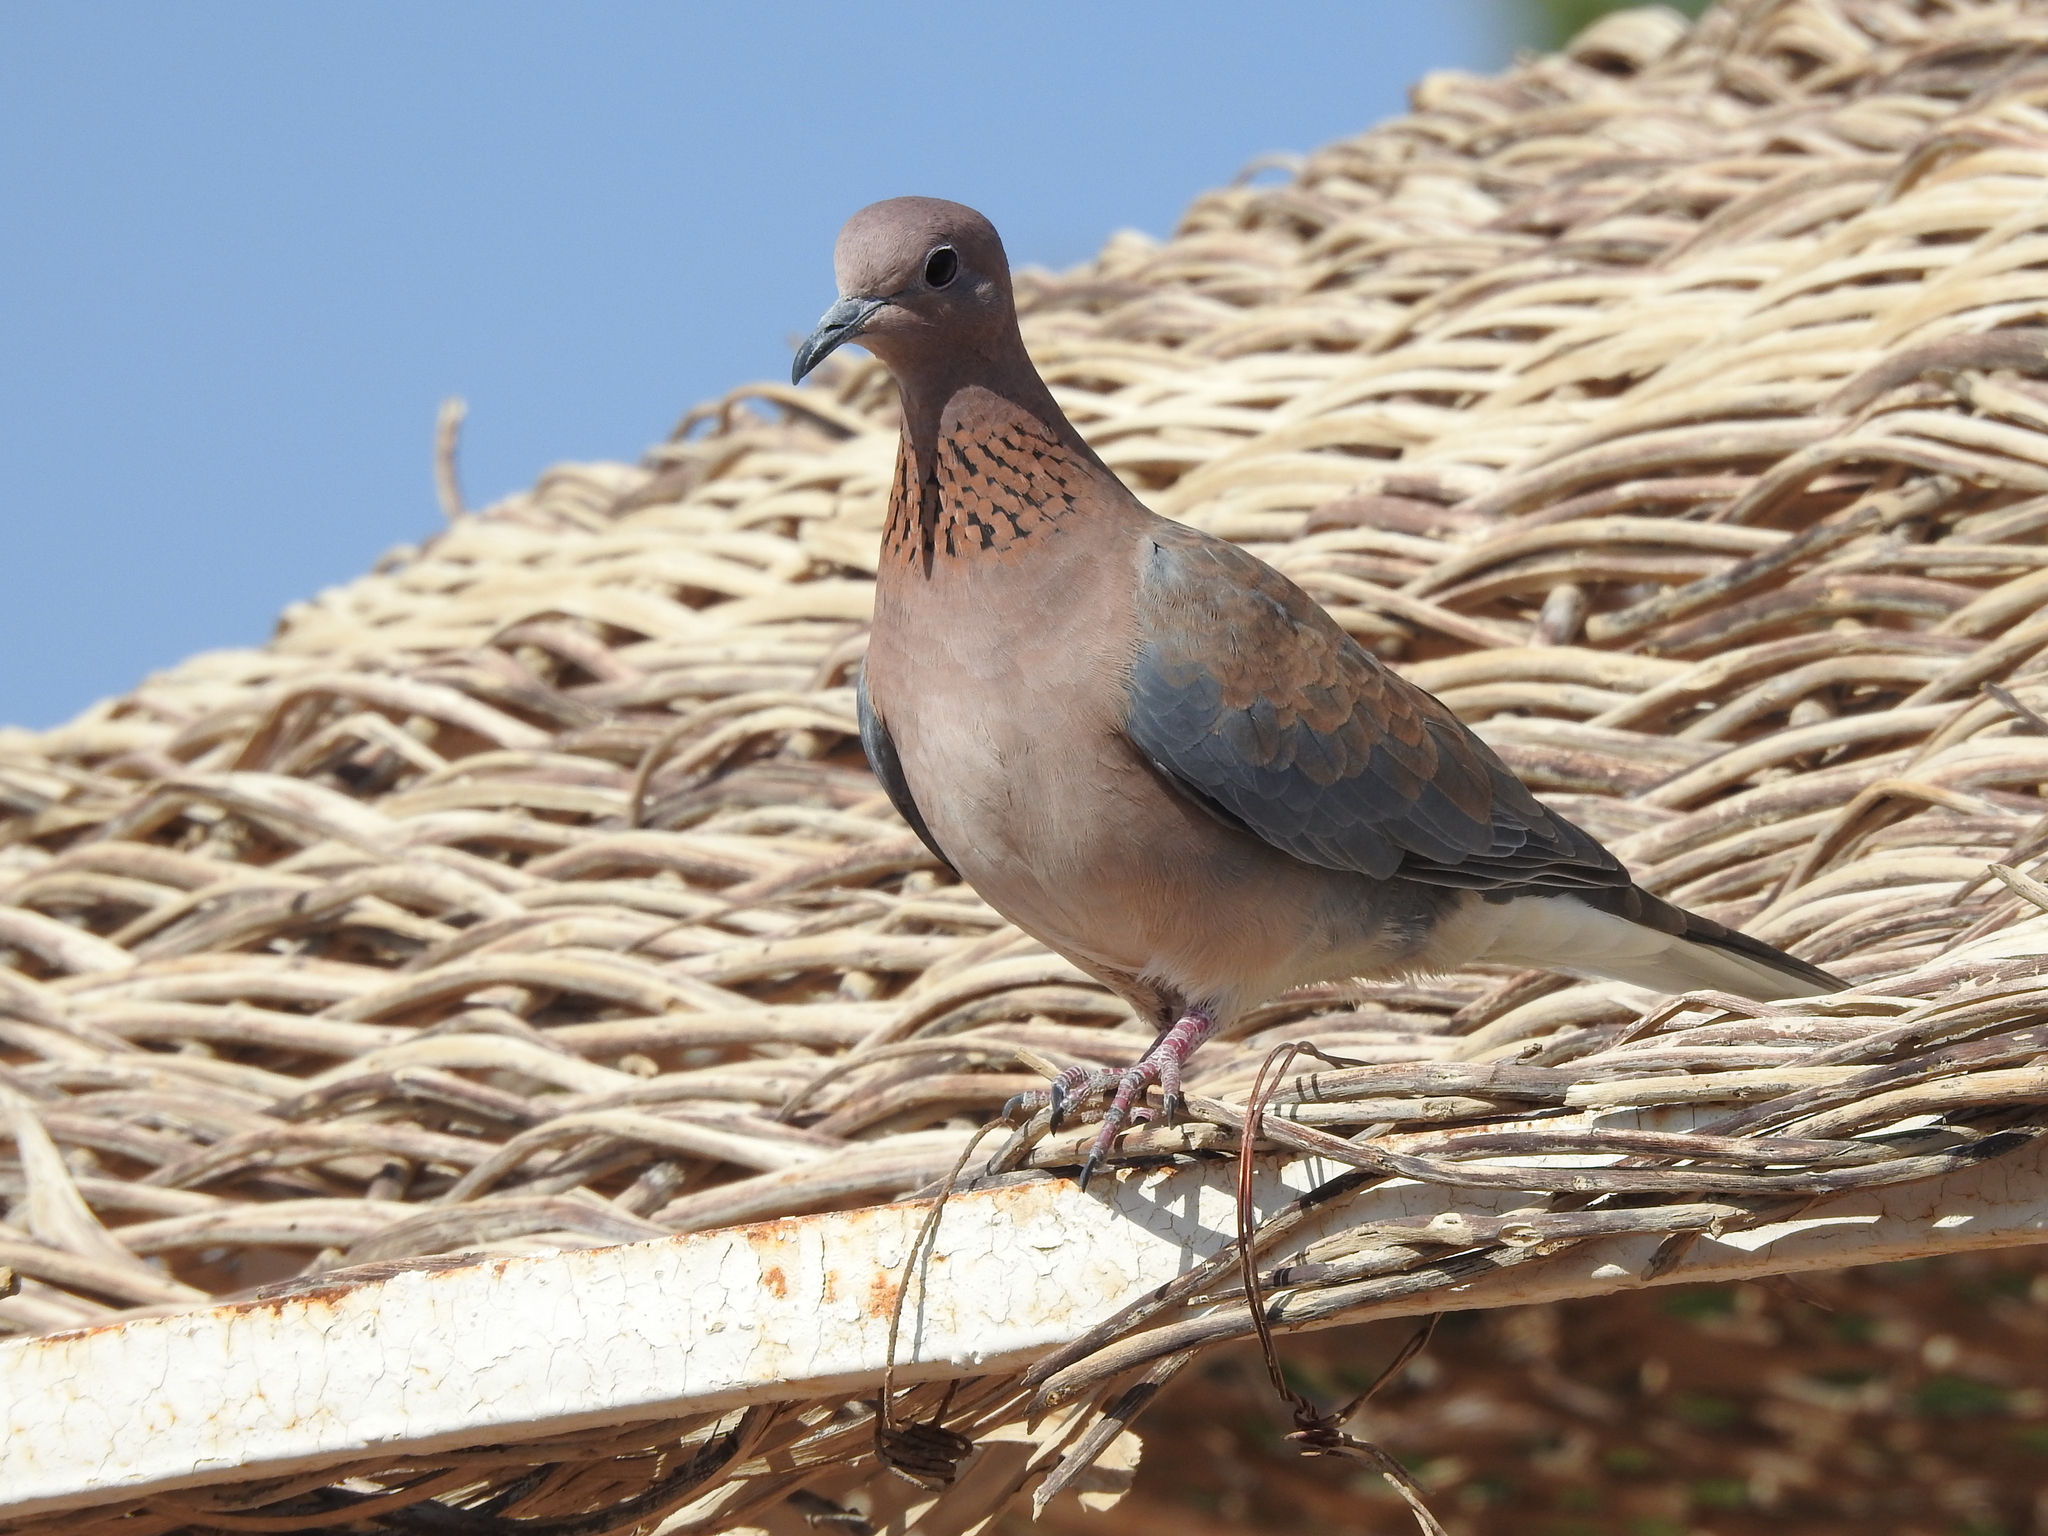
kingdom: Animalia
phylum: Chordata
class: Aves
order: Columbiformes
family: Columbidae
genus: Spilopelia
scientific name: Spilopelia senegalensis
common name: Laughing dove
